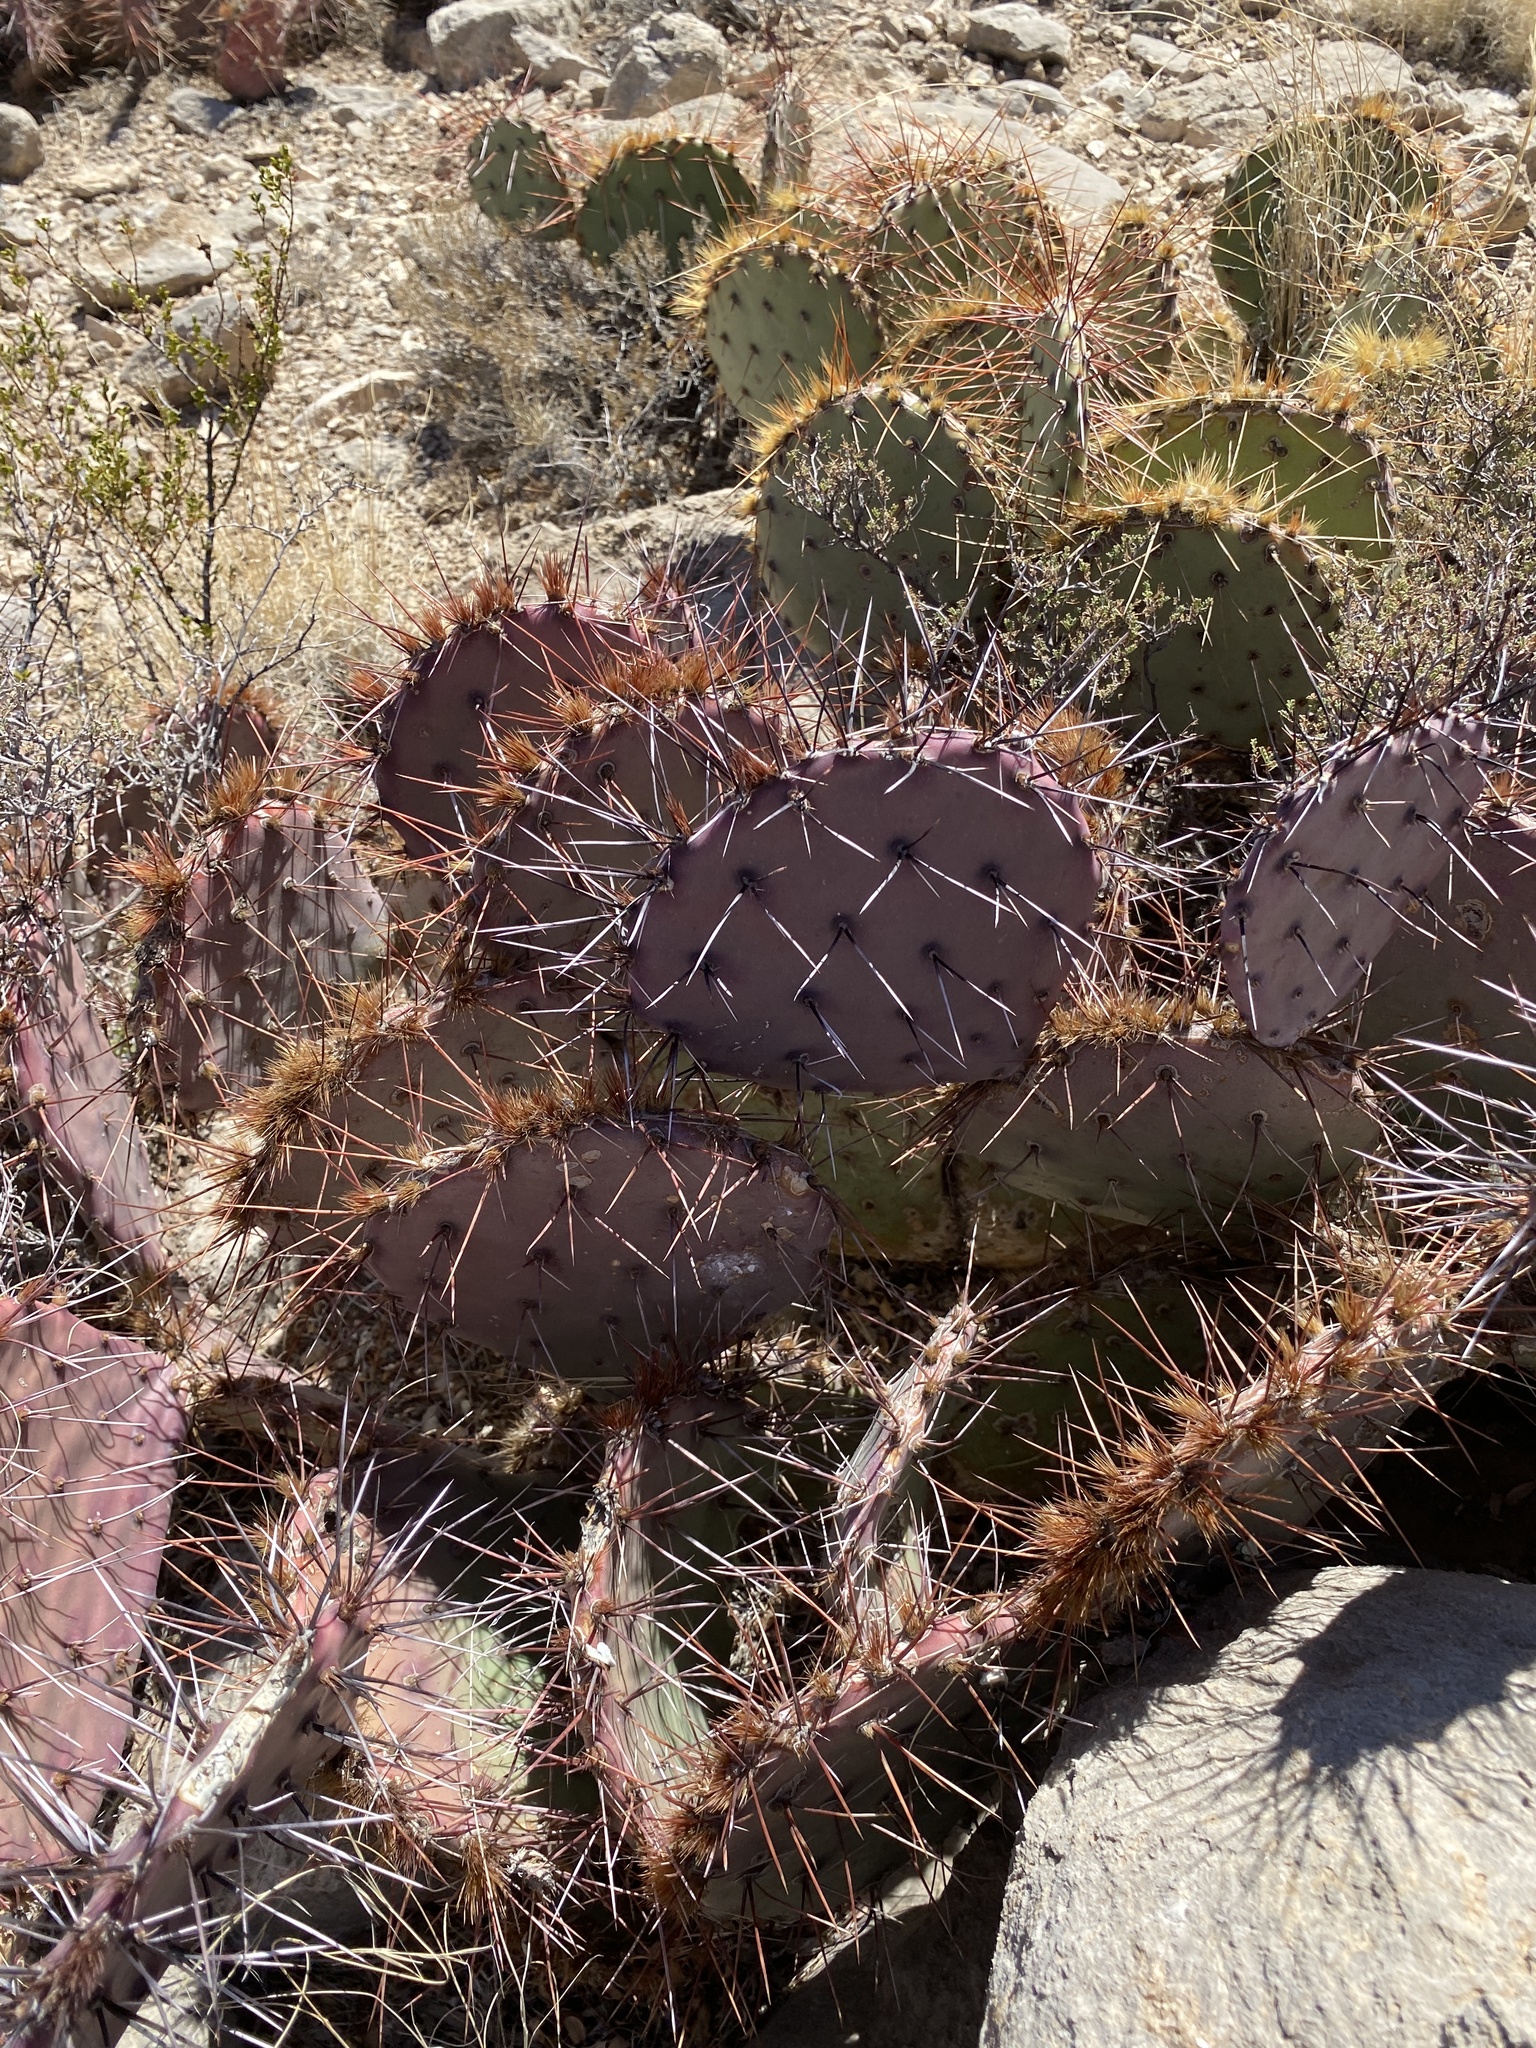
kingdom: Plantae
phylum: Tracheophyta
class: Magnoliopsida
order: Caryophyllales
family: Cactaceae
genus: Opuntia
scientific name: Opuntia macrocentra
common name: Purple prickly-pear
